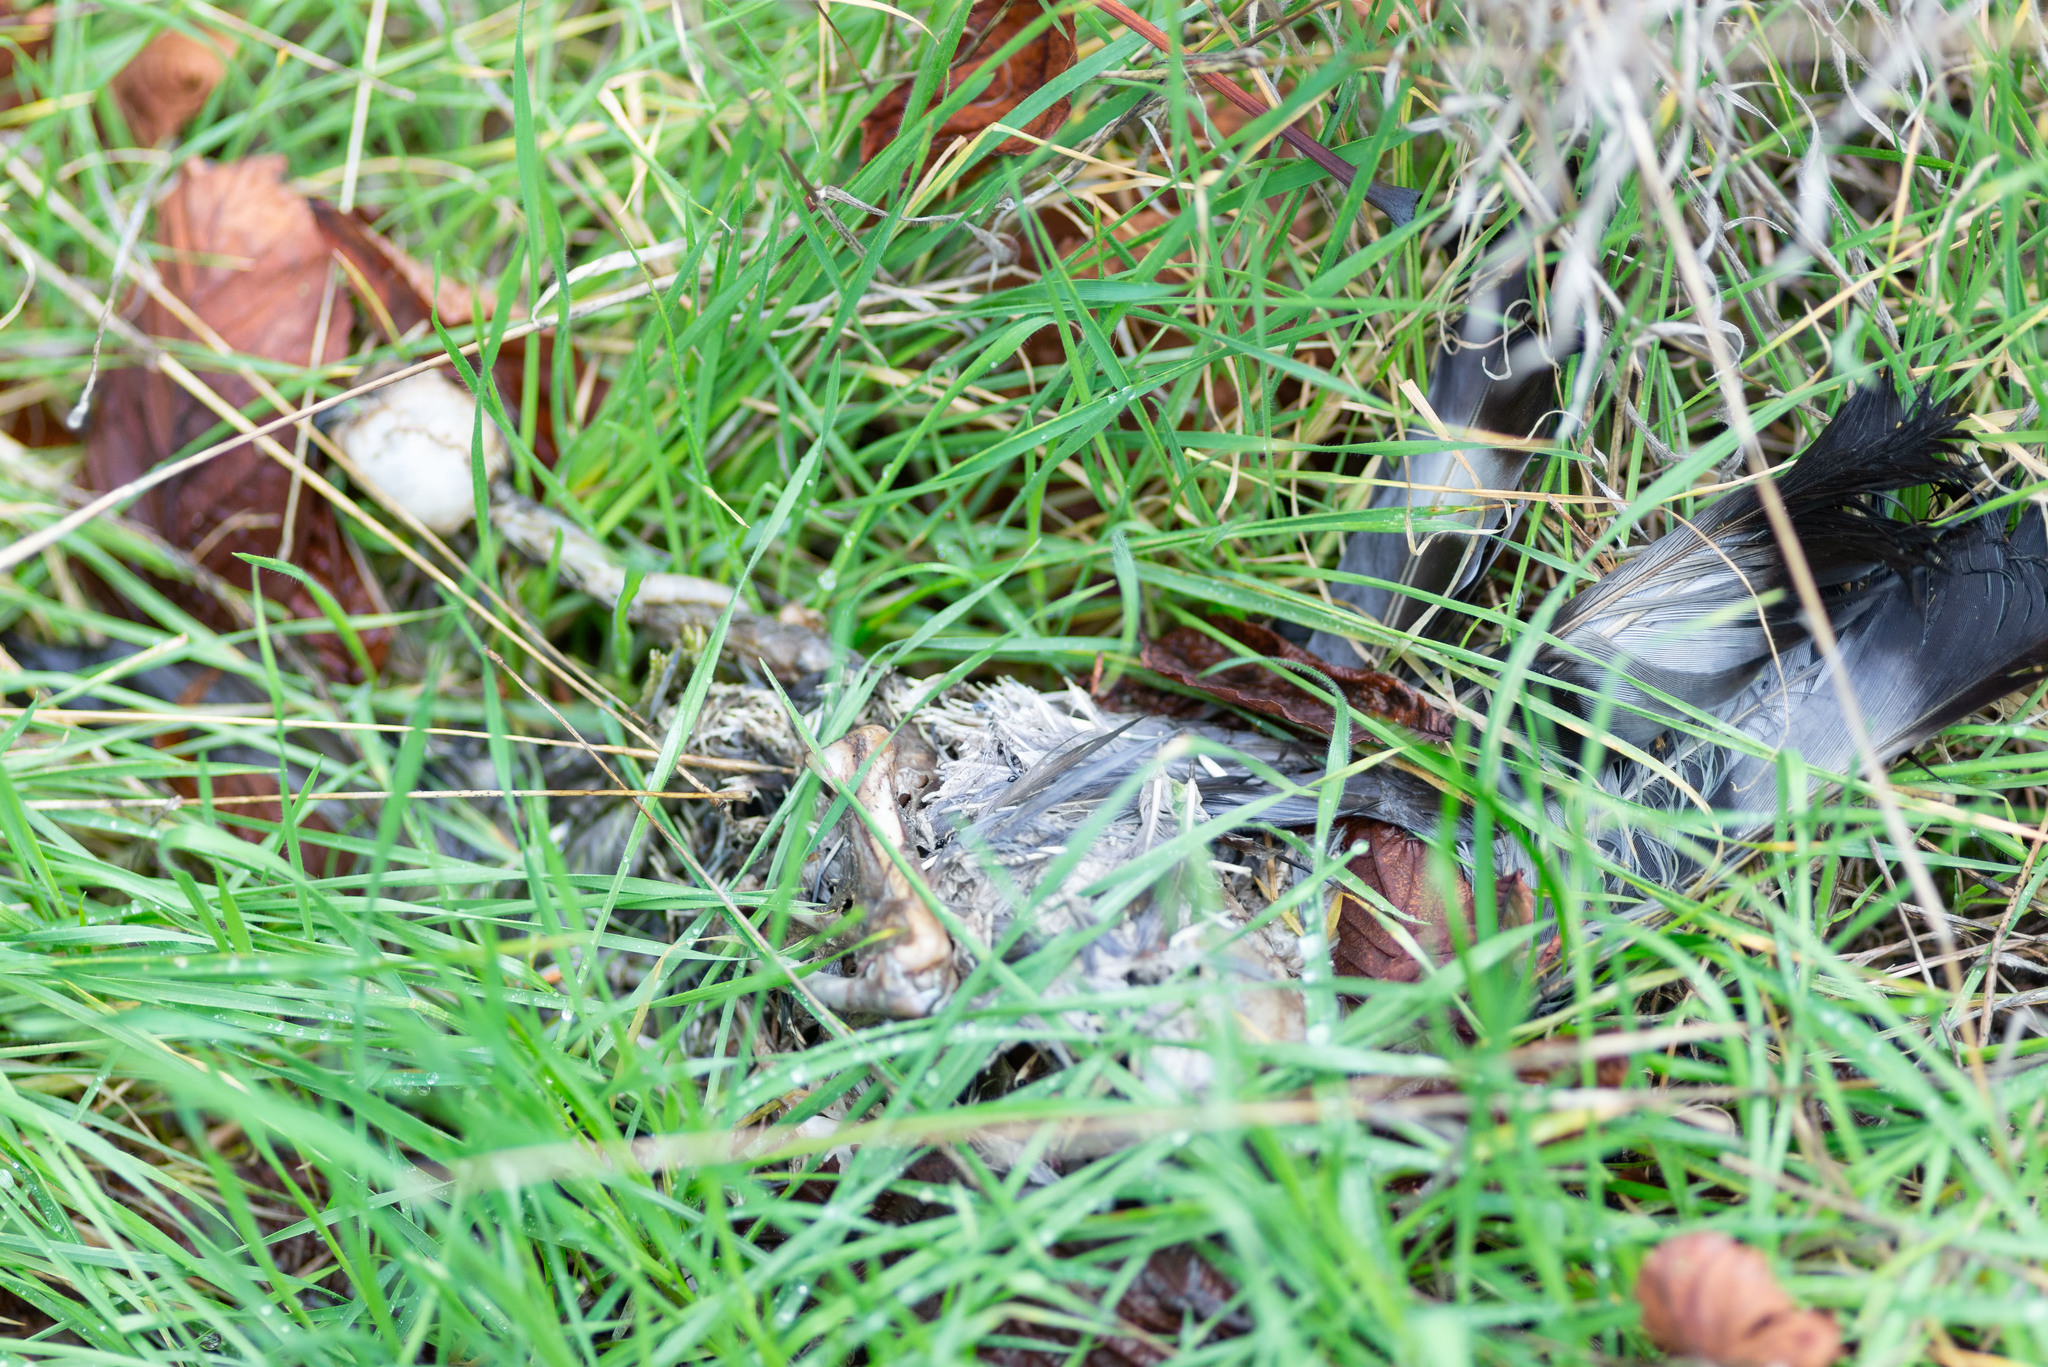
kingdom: Animalia
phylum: Chordata
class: Aves
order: Columbiformes
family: Columbidae
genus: Columba
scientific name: Columba palumbus
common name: Common wood pigeon
